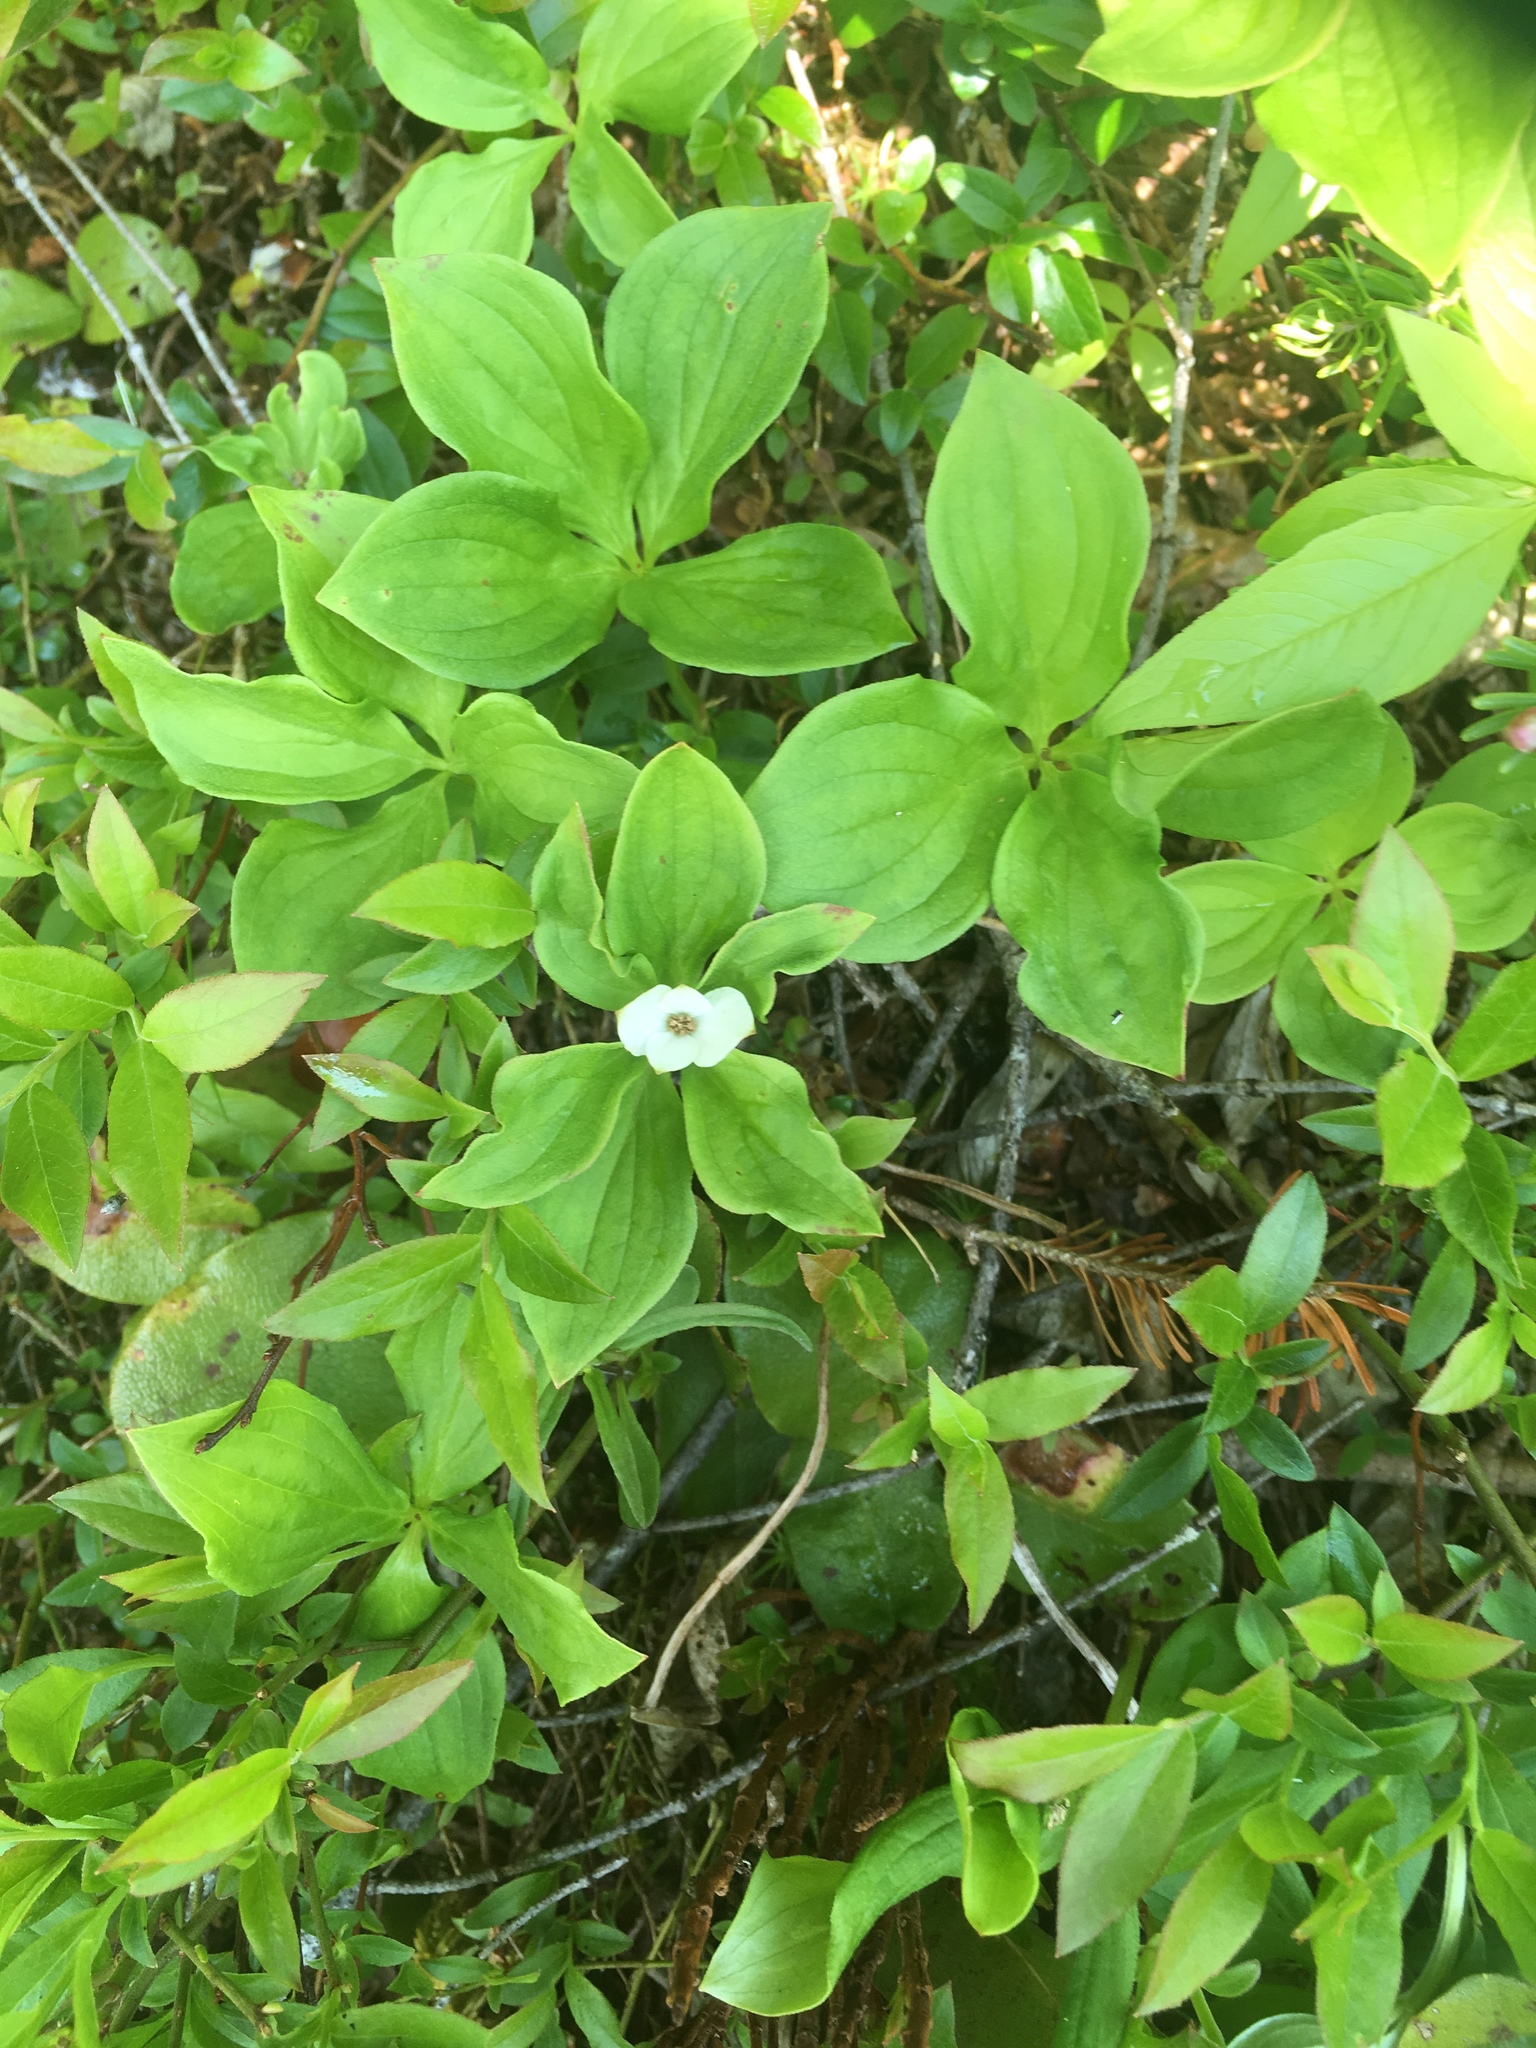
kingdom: Plantae
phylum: Tracheophyta
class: Magnoliopsida
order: Cornales
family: Cornaceae
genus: Cornus
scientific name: Cornus canadensis
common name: Creeping dogwood
